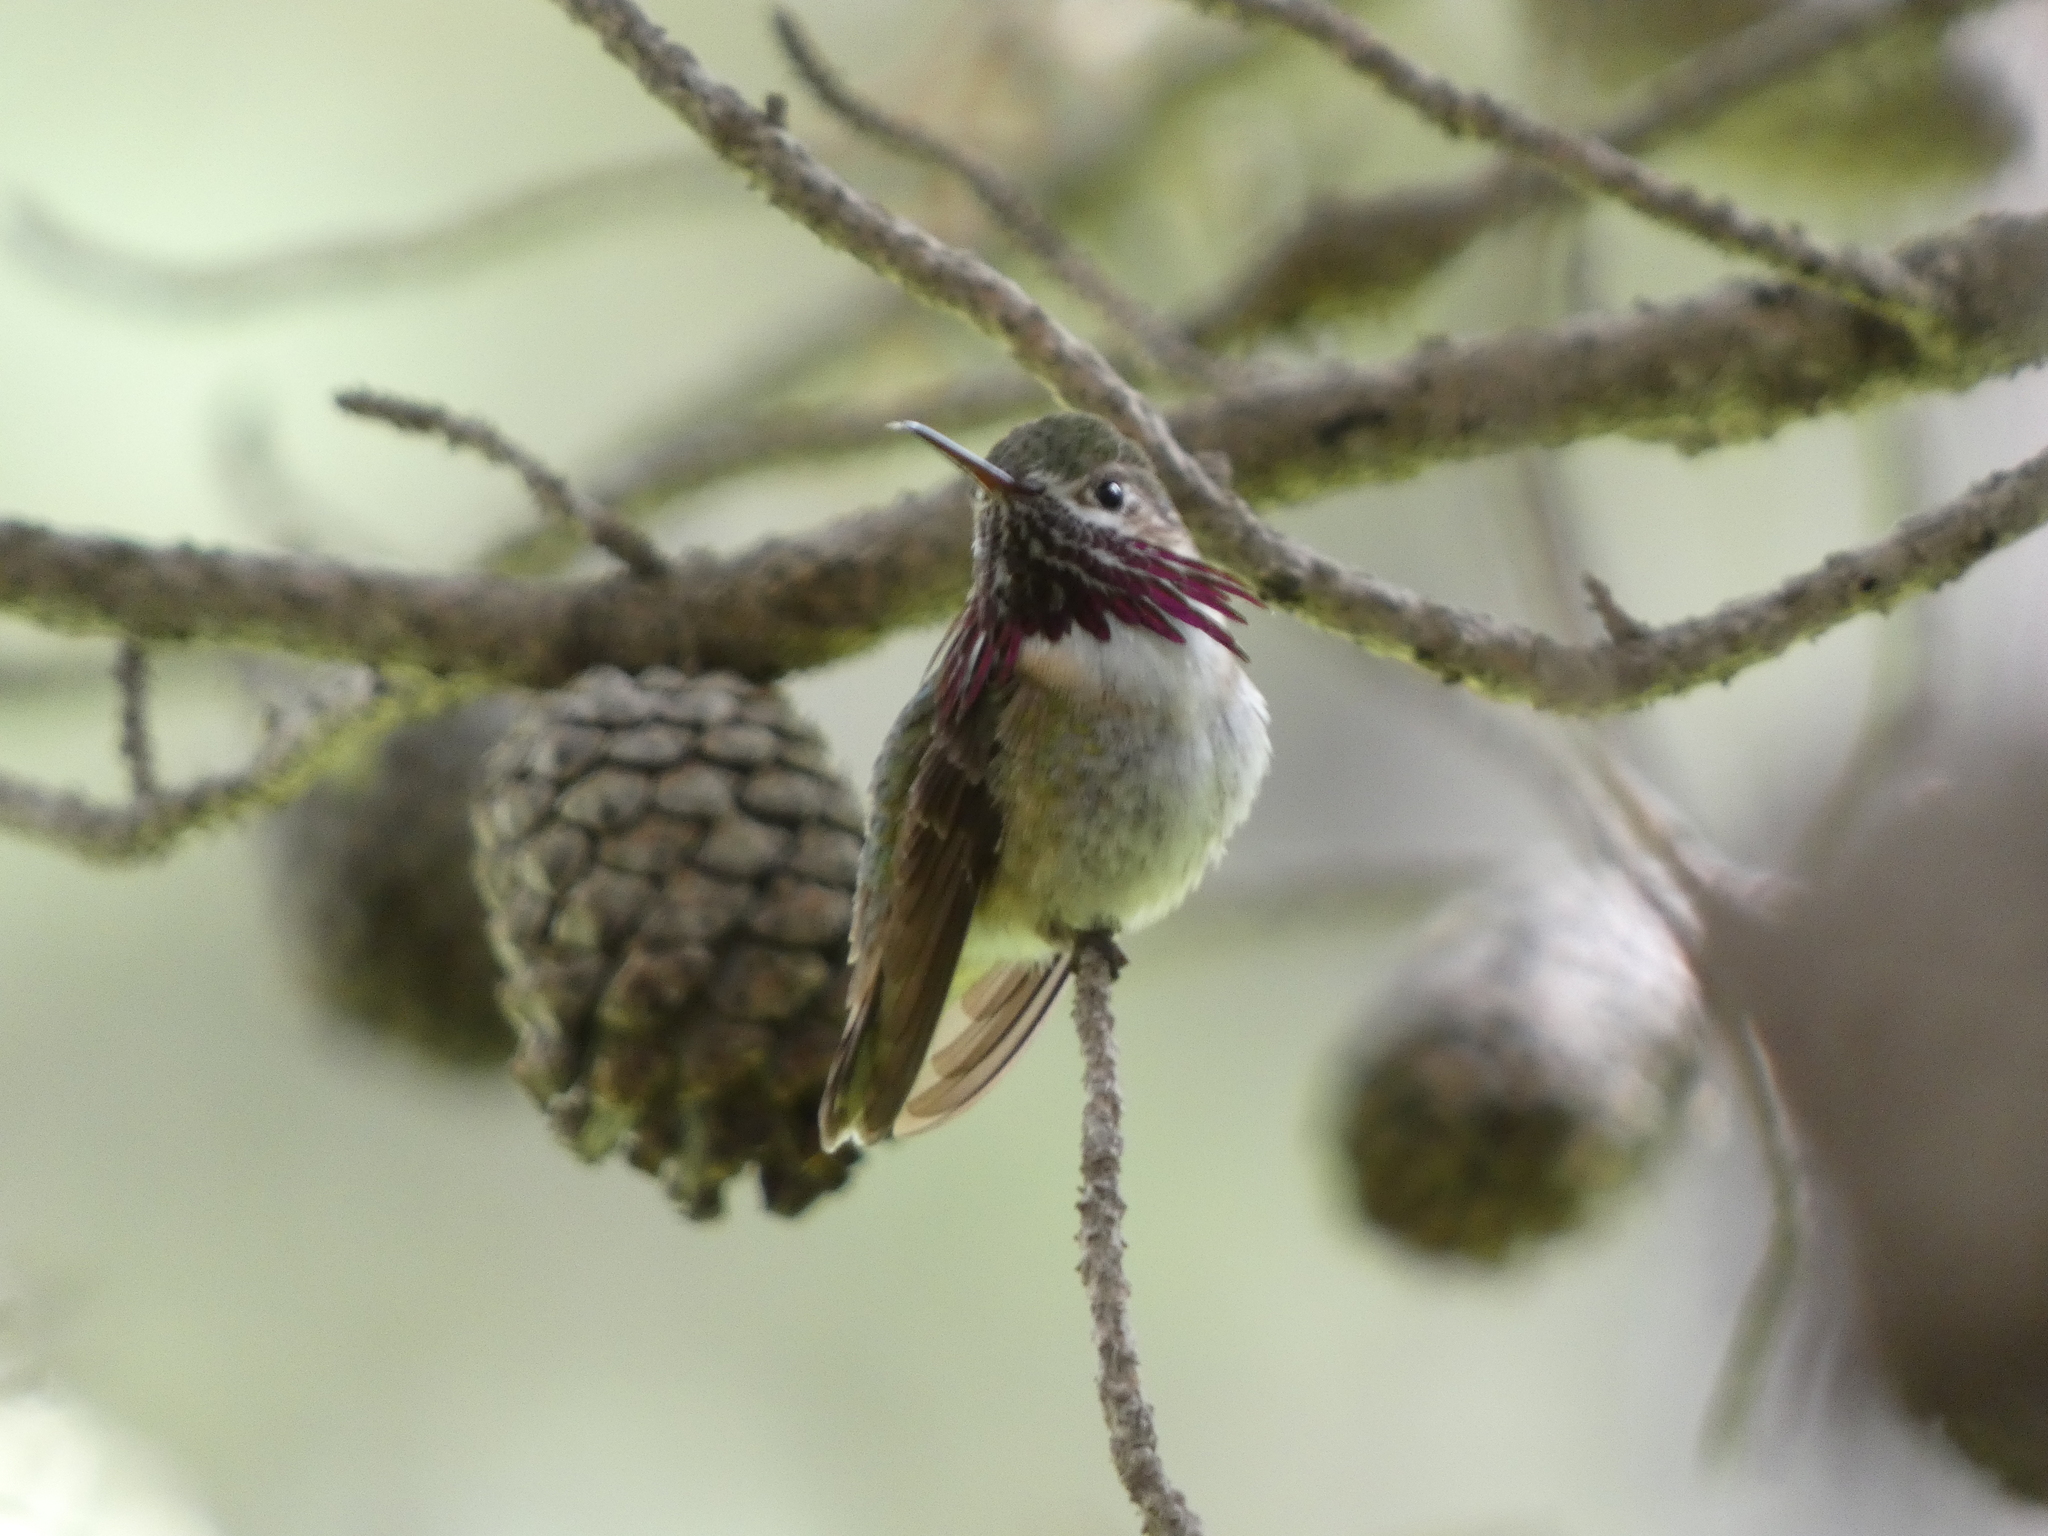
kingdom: Animalia
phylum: Chordata
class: Aves
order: Apodiformes
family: Trochilidae
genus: Selasphorus
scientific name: Selasphorus calliope
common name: Calliope hummingbird
